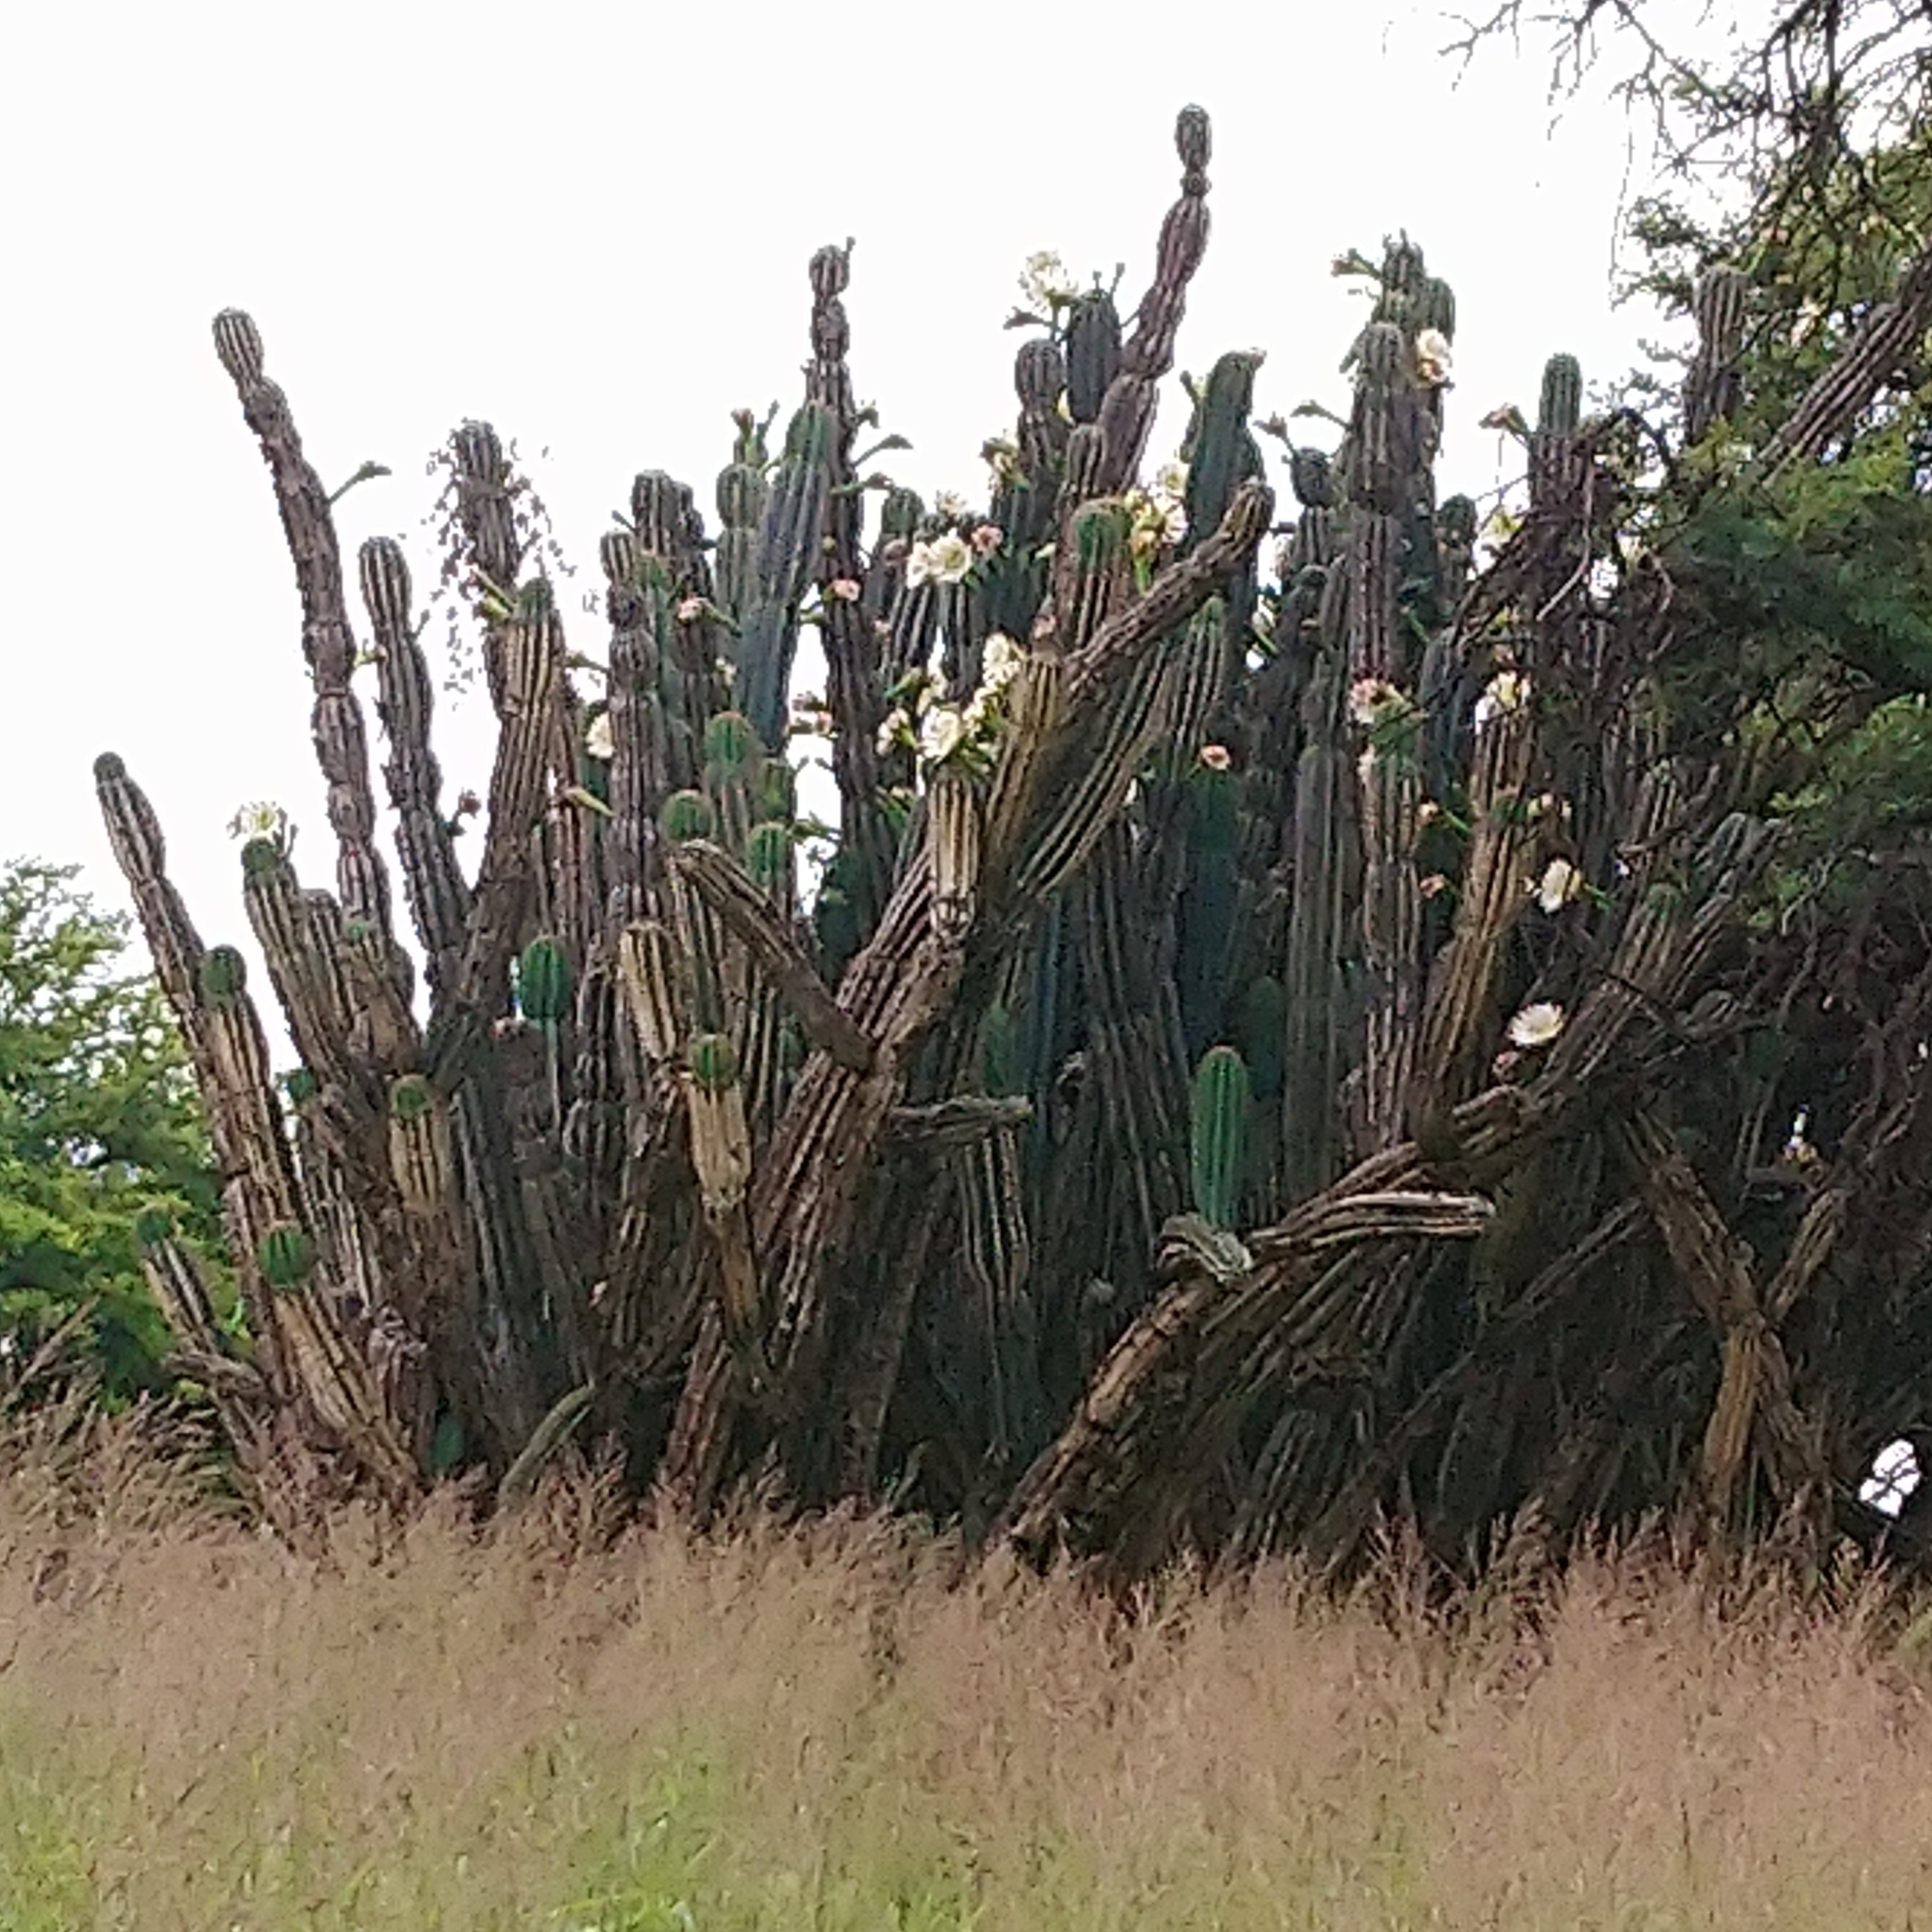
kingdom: Plantae
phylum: Tracheophyta
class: Magnoliopsida
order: Caryophyllales
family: Cactaceae
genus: Cereus
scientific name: Cereus jamacaru
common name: Queen-of-the-night
